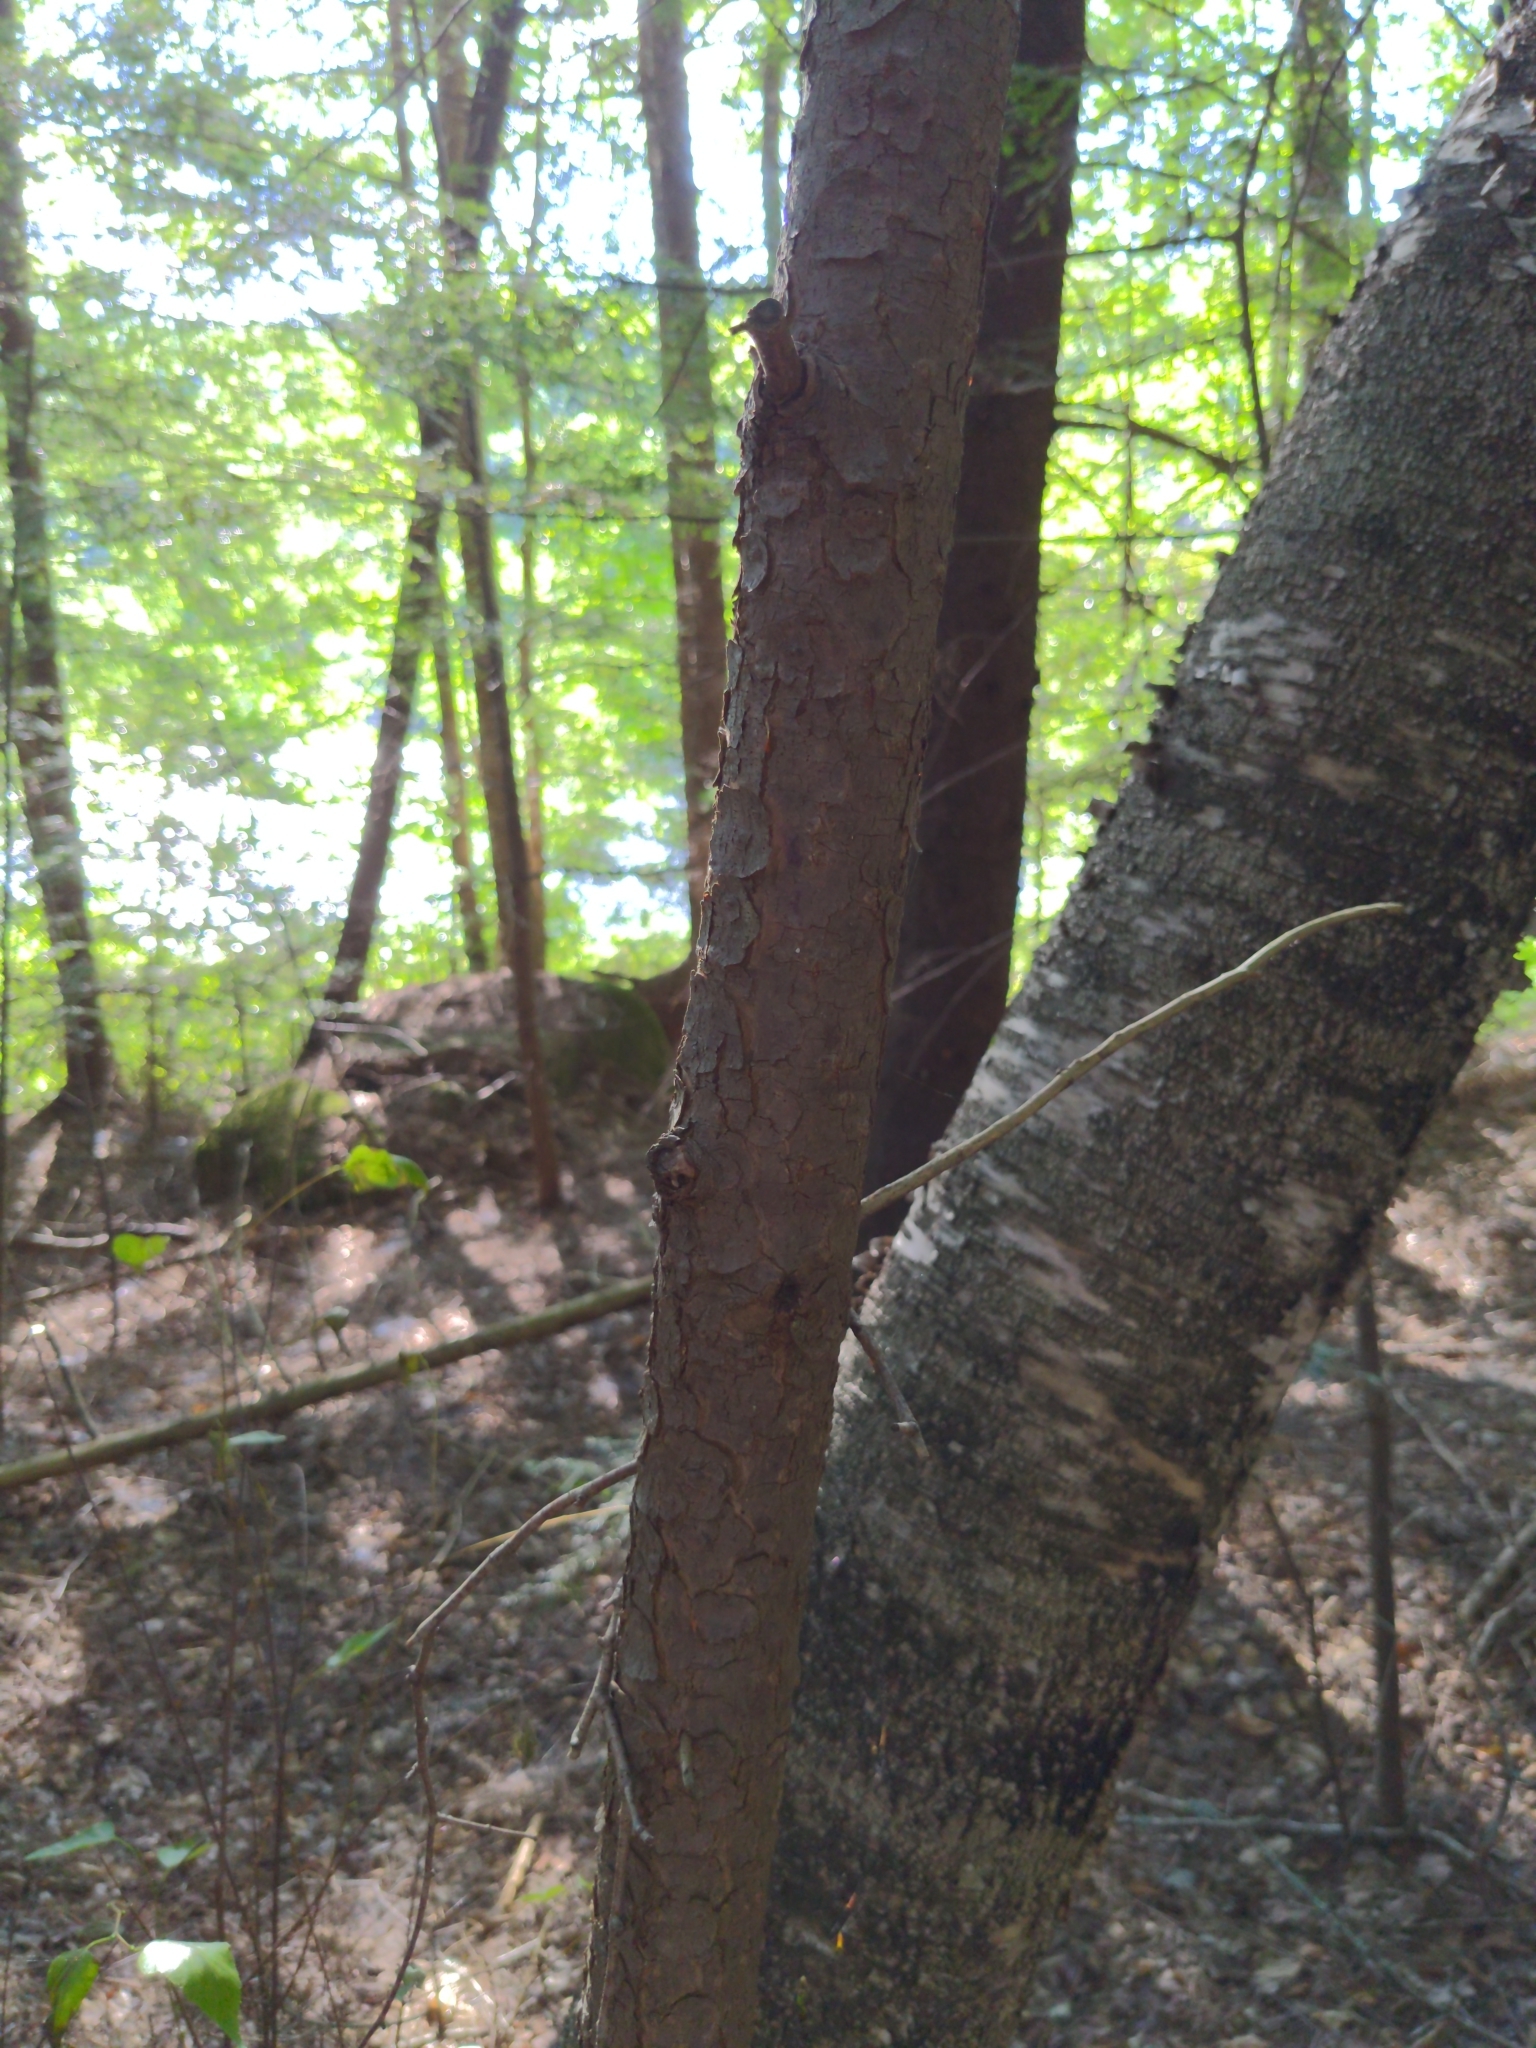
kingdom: Plantae
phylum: Tracheophyta
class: Pinopsida
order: Pinales
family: Pinaceae
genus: Tsuga
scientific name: Tsuga canadensis
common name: Eastern hemlock
